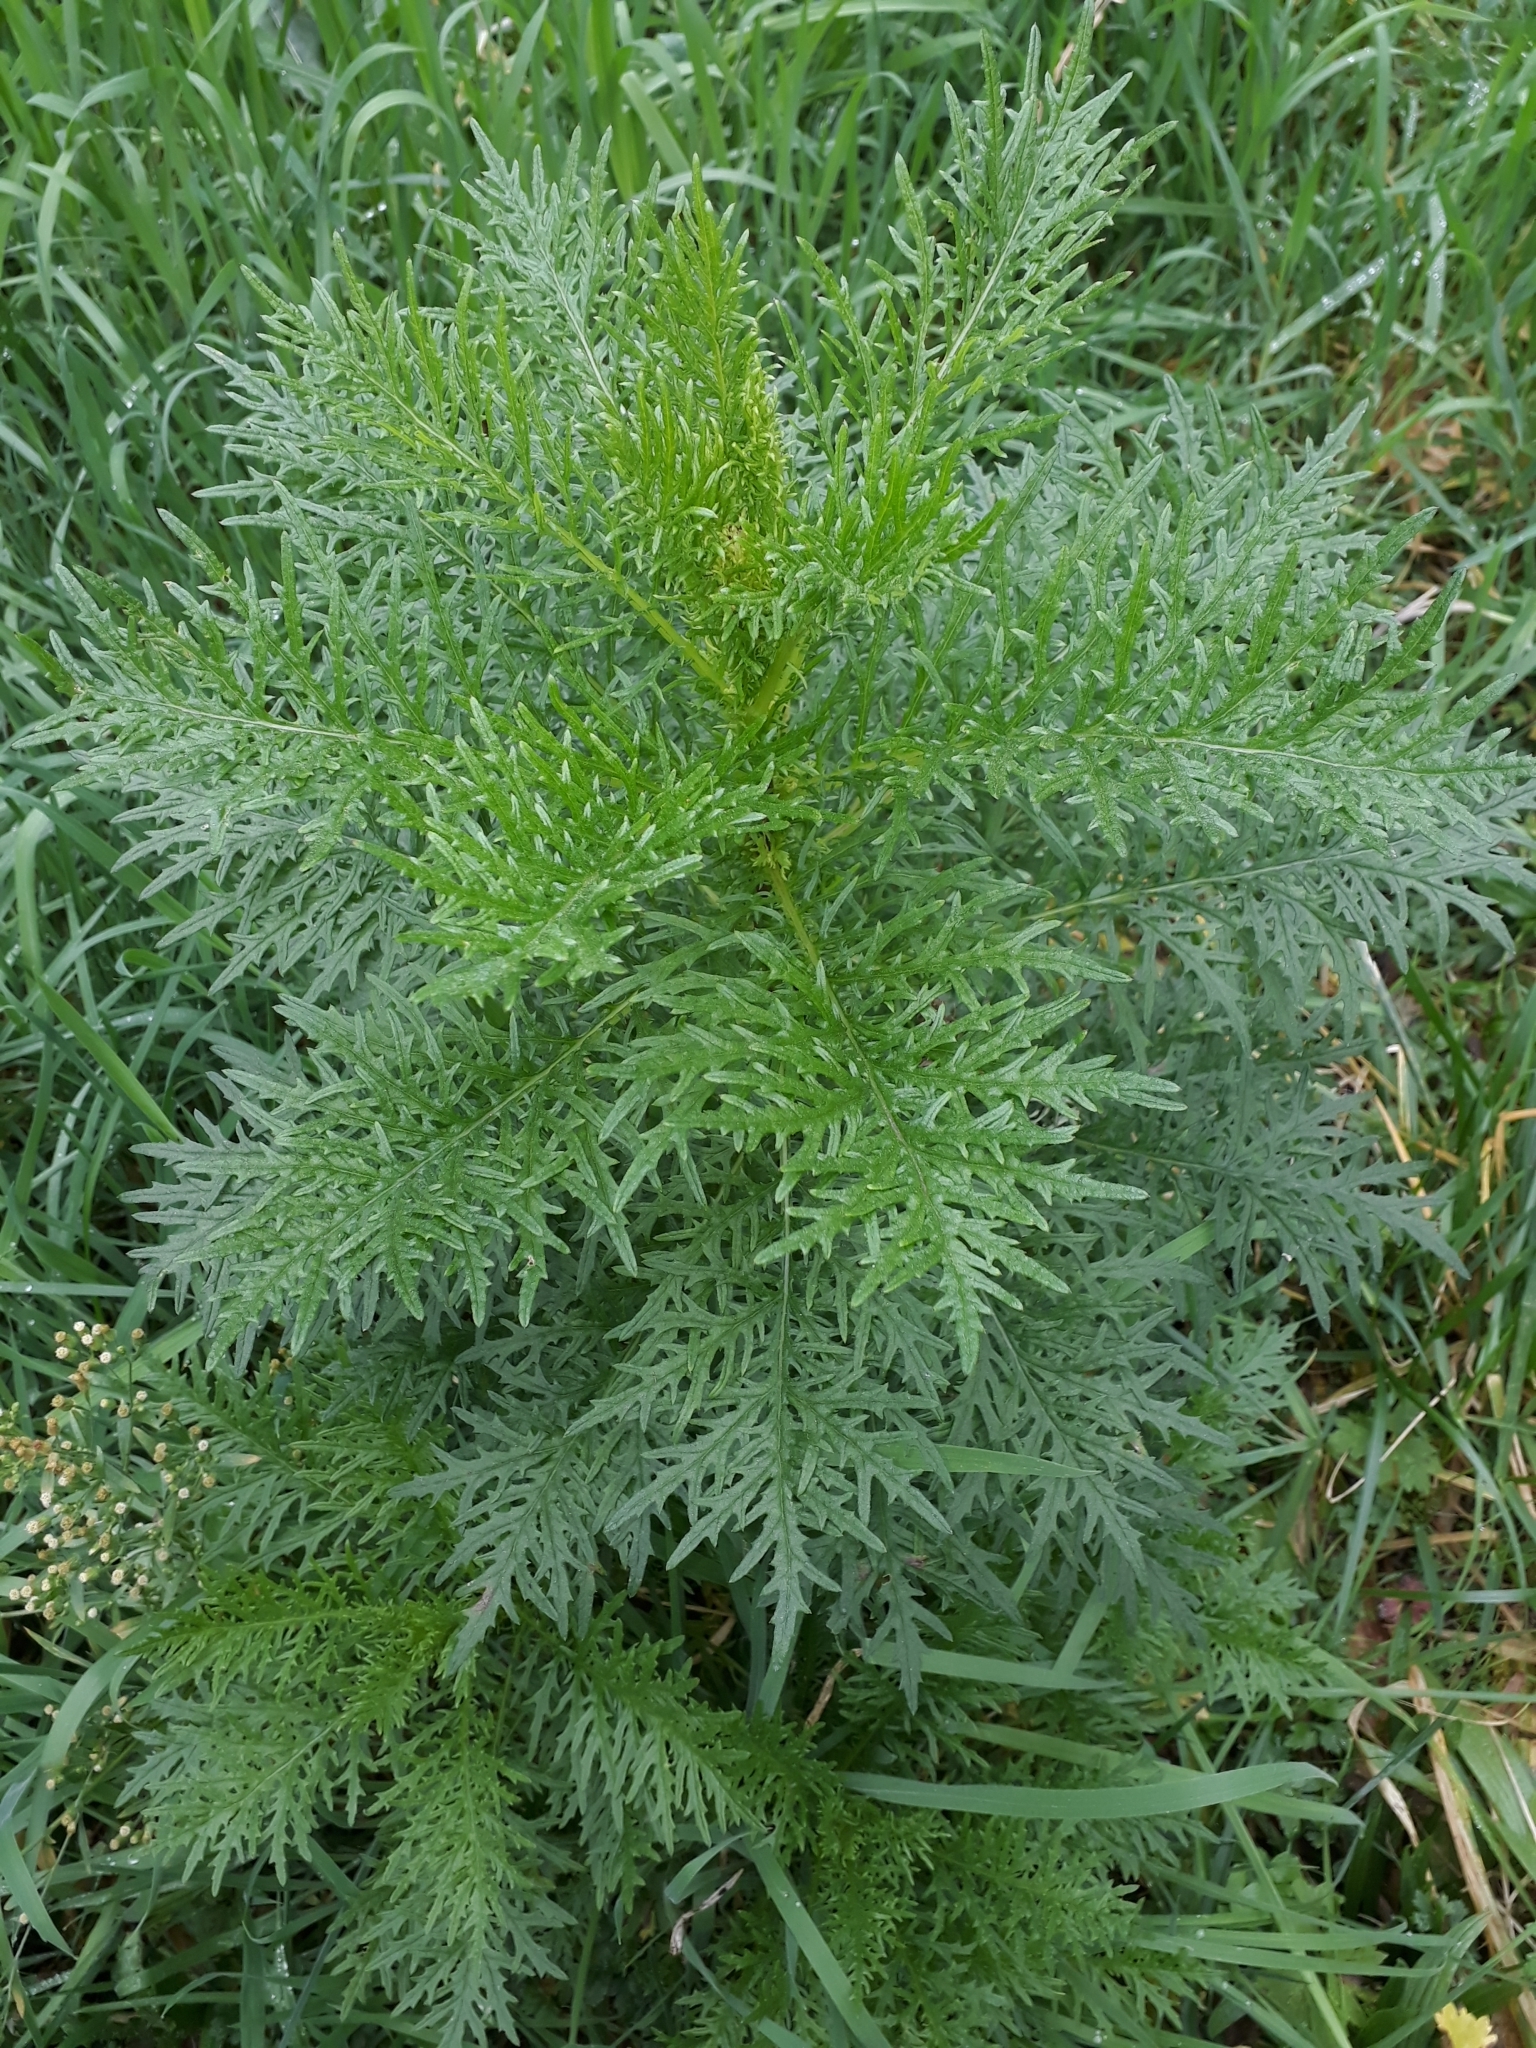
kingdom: Plantae
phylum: Tracheophyta
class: Magnoliopsida
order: Asterales
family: Asteraceae
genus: Senecio
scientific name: Senecio bipinnatisectus
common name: Australian fireweed
